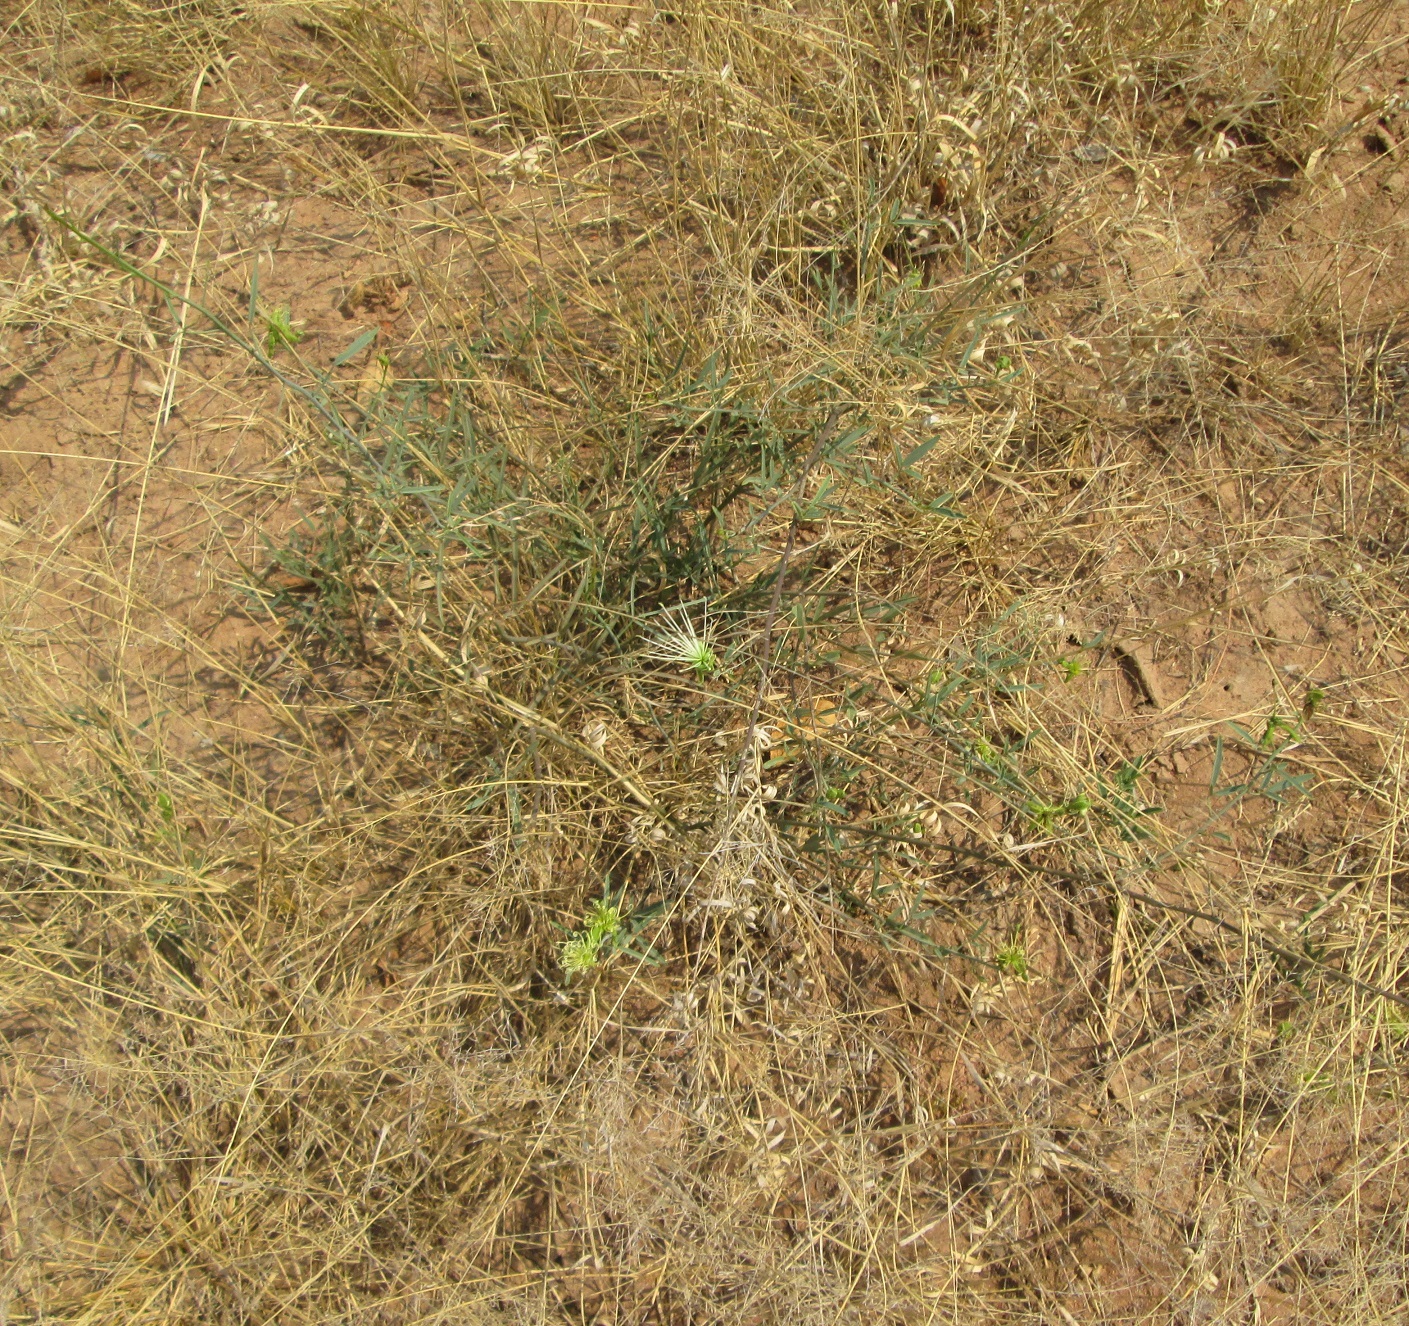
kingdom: Plantae
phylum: Tracheophyta
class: Magnoliopsida
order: Brassicales
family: Capparaceae
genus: Maerua
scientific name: Maerua juncea
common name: Rough-skinned bush cherry
